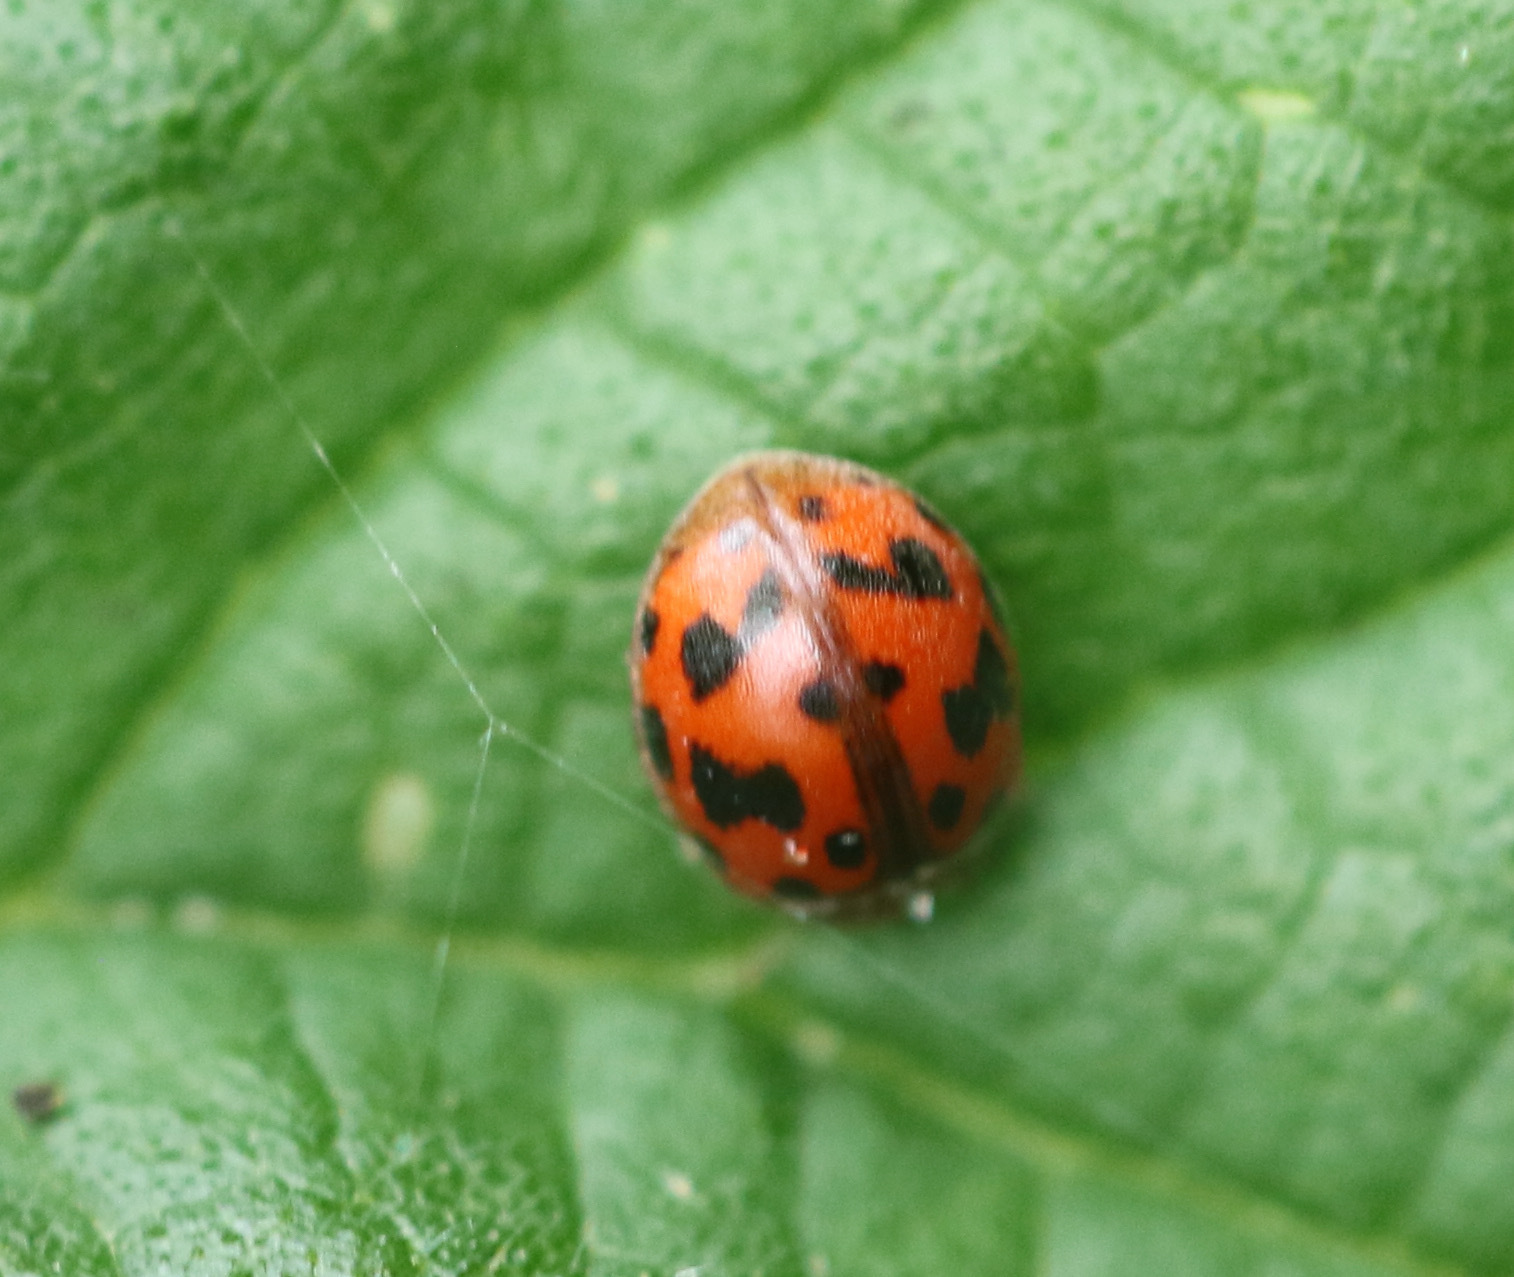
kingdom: Animalia
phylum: Arthropoda
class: Insecta
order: Coleoptera
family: Coccinellidae
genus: Subcoccinella
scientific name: Subcoccinella vigintiquatuorpunctata
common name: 24-spot ladybird
